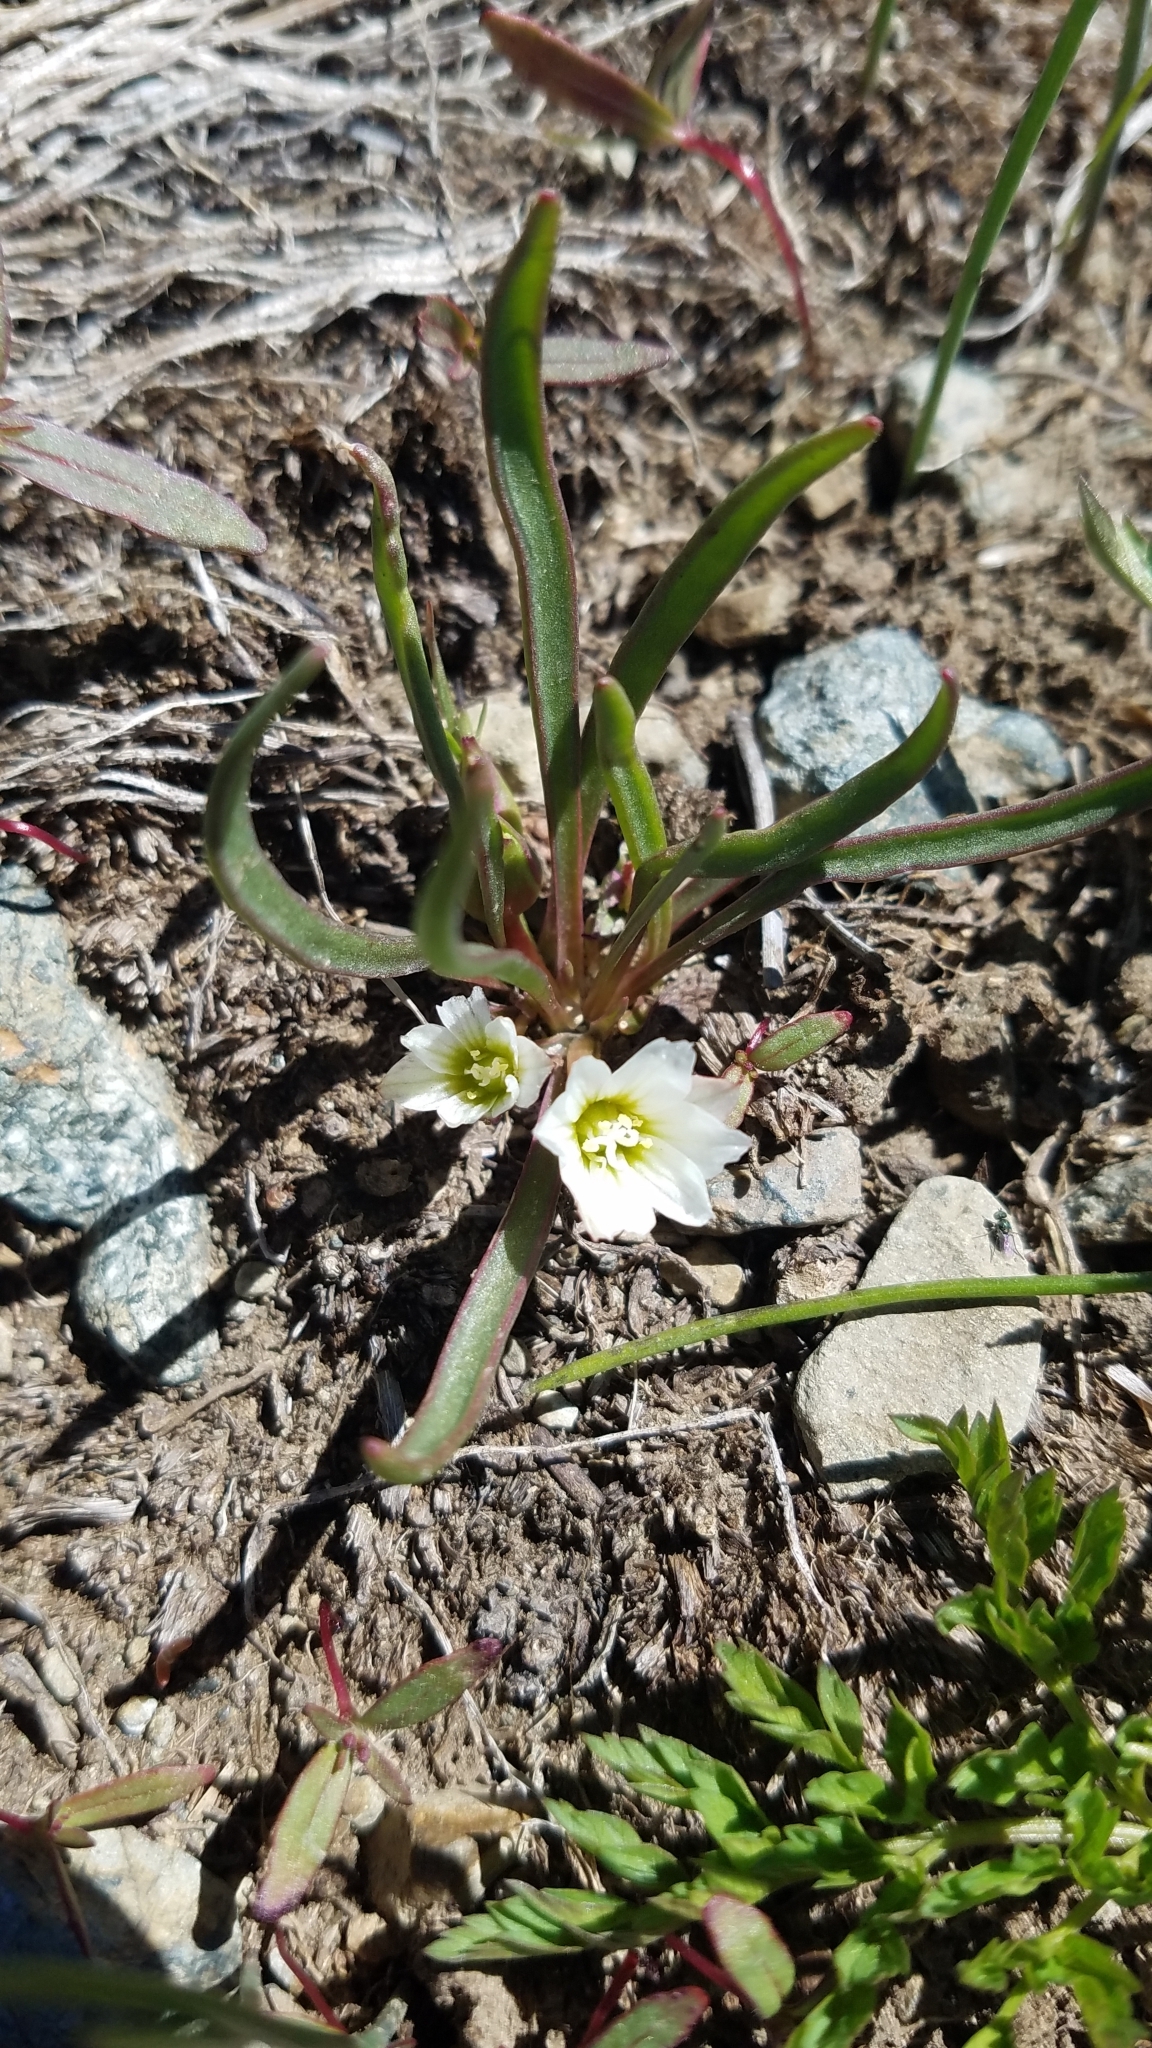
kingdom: Plantae
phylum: Tracheophyta
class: Magnoliopsida
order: Caryophyllales
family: Montiaceae
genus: Lewisia
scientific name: Lewisia nevadensis
